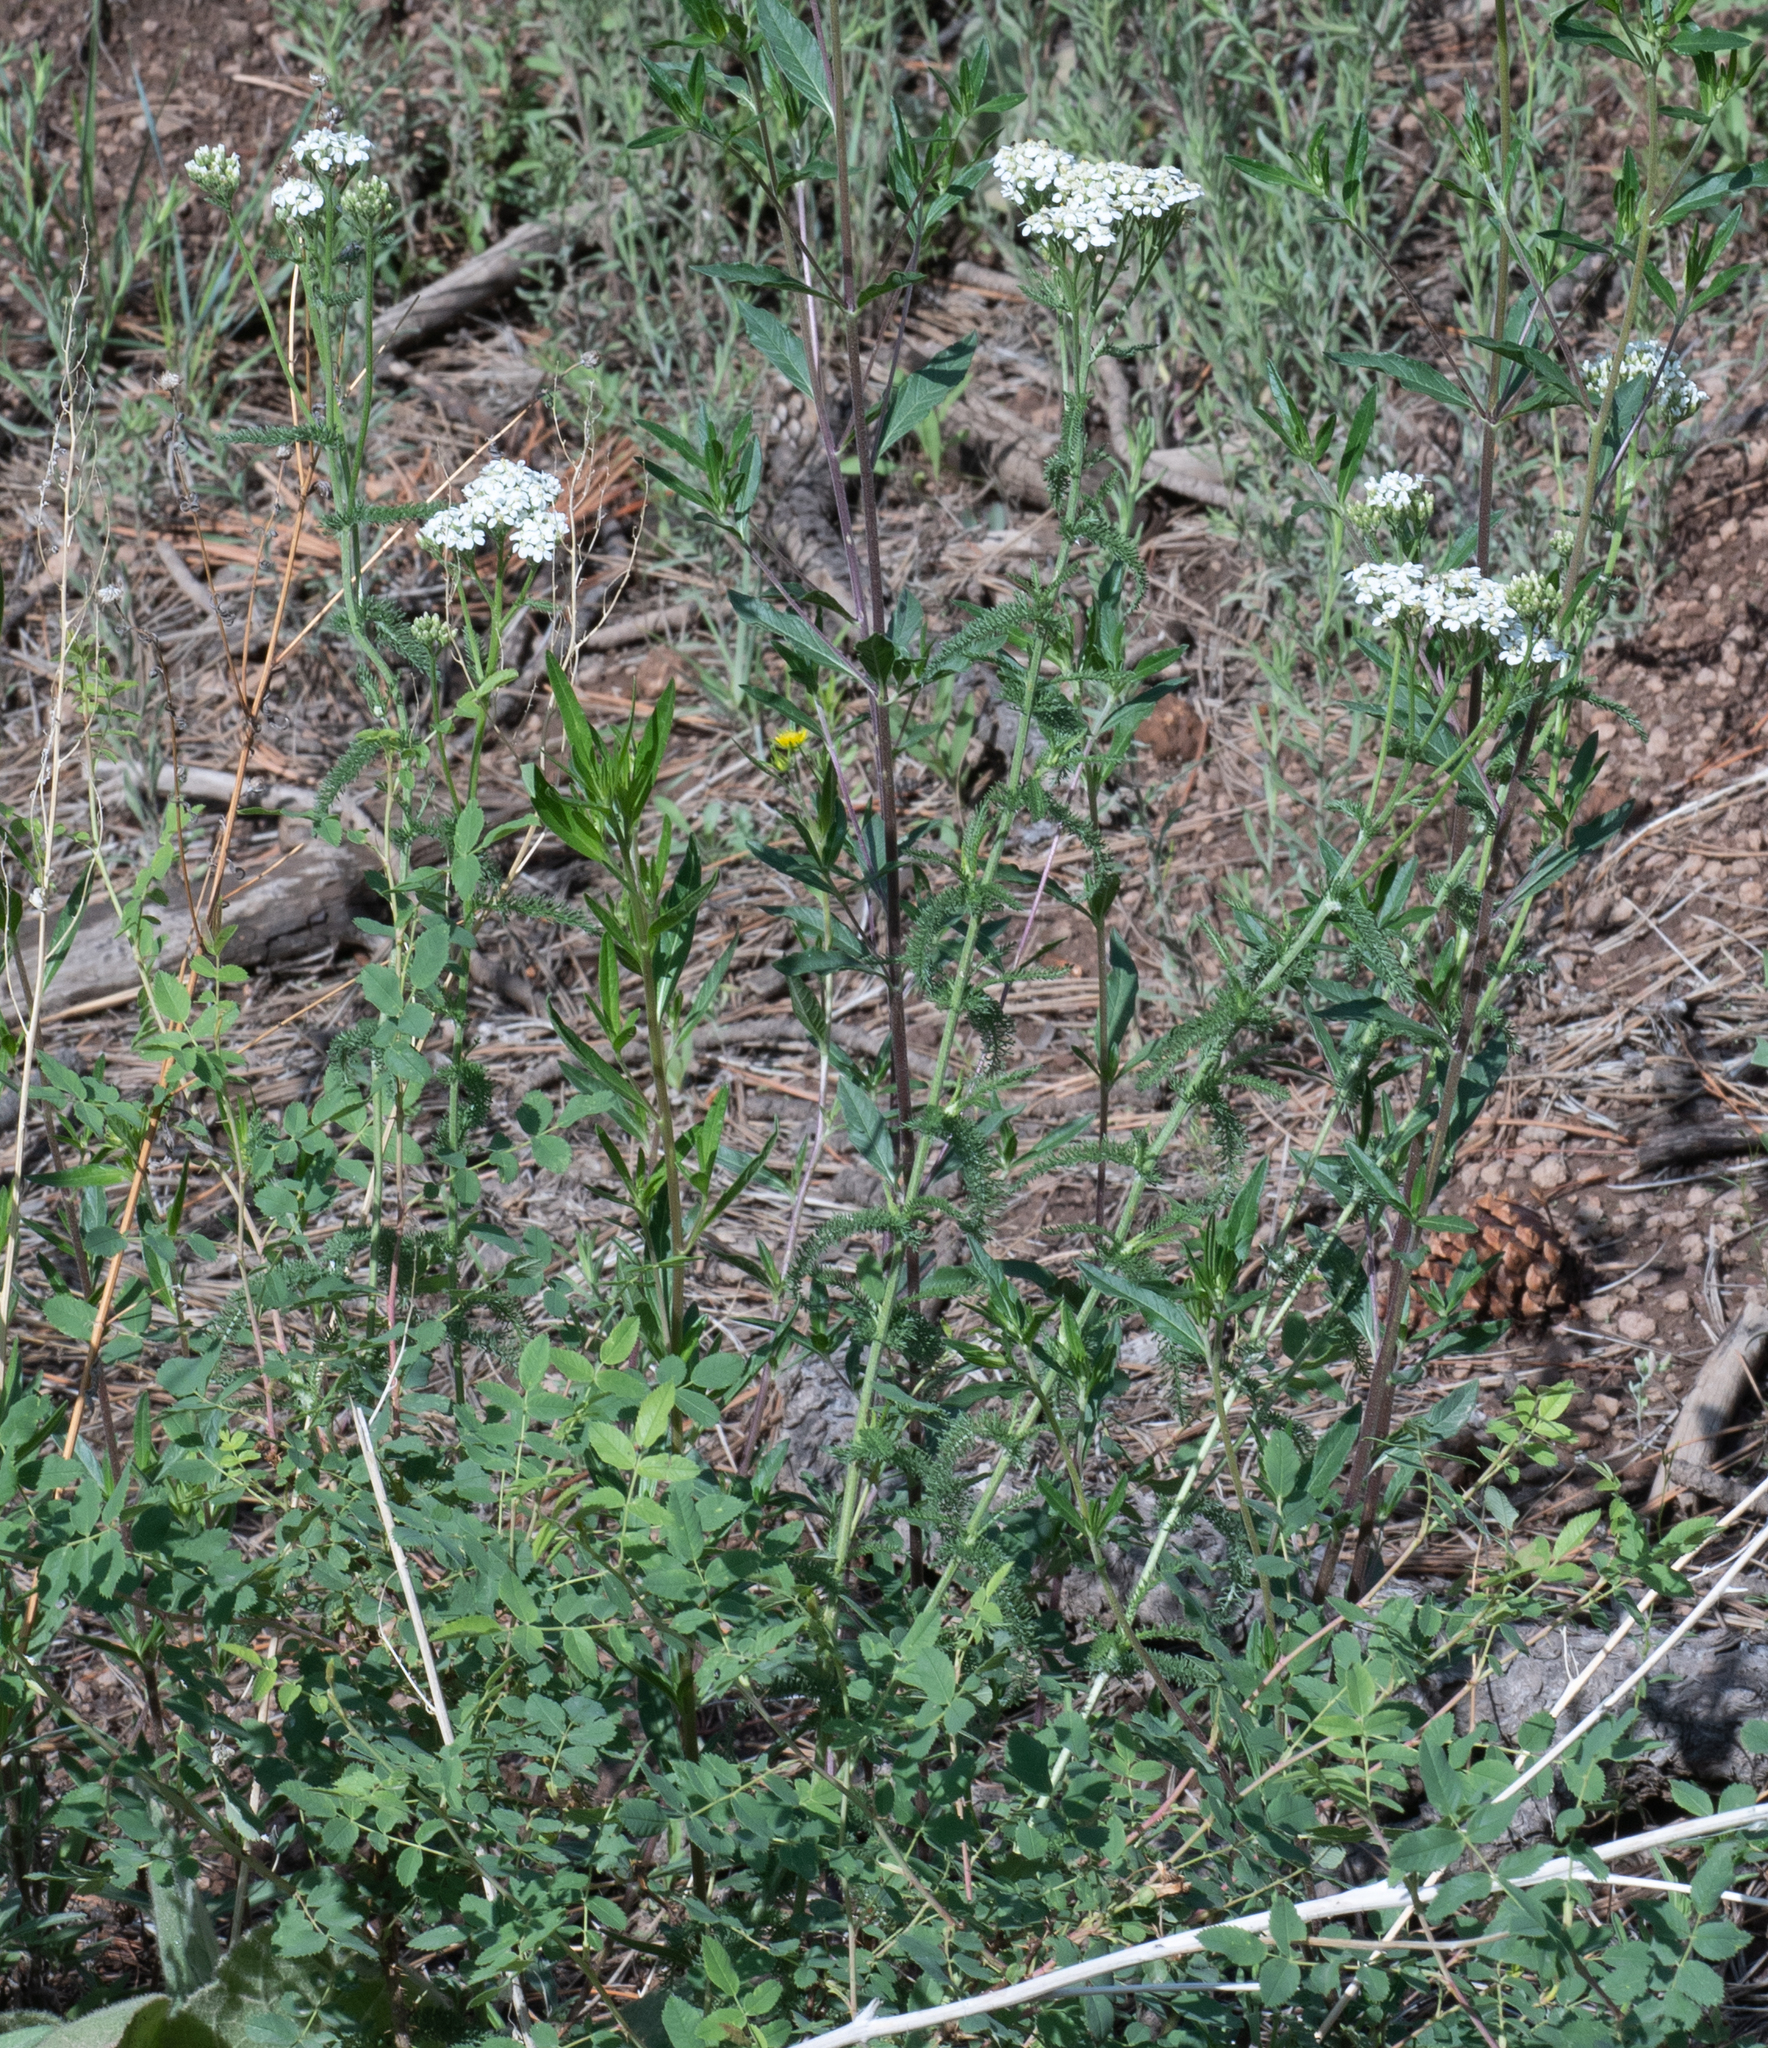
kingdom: Plantae
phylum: Tracheophyta
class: Magnoliopsida
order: Asterales
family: Asteraceae
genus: Achillea
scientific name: Achillea millefolium
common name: Yarrow
